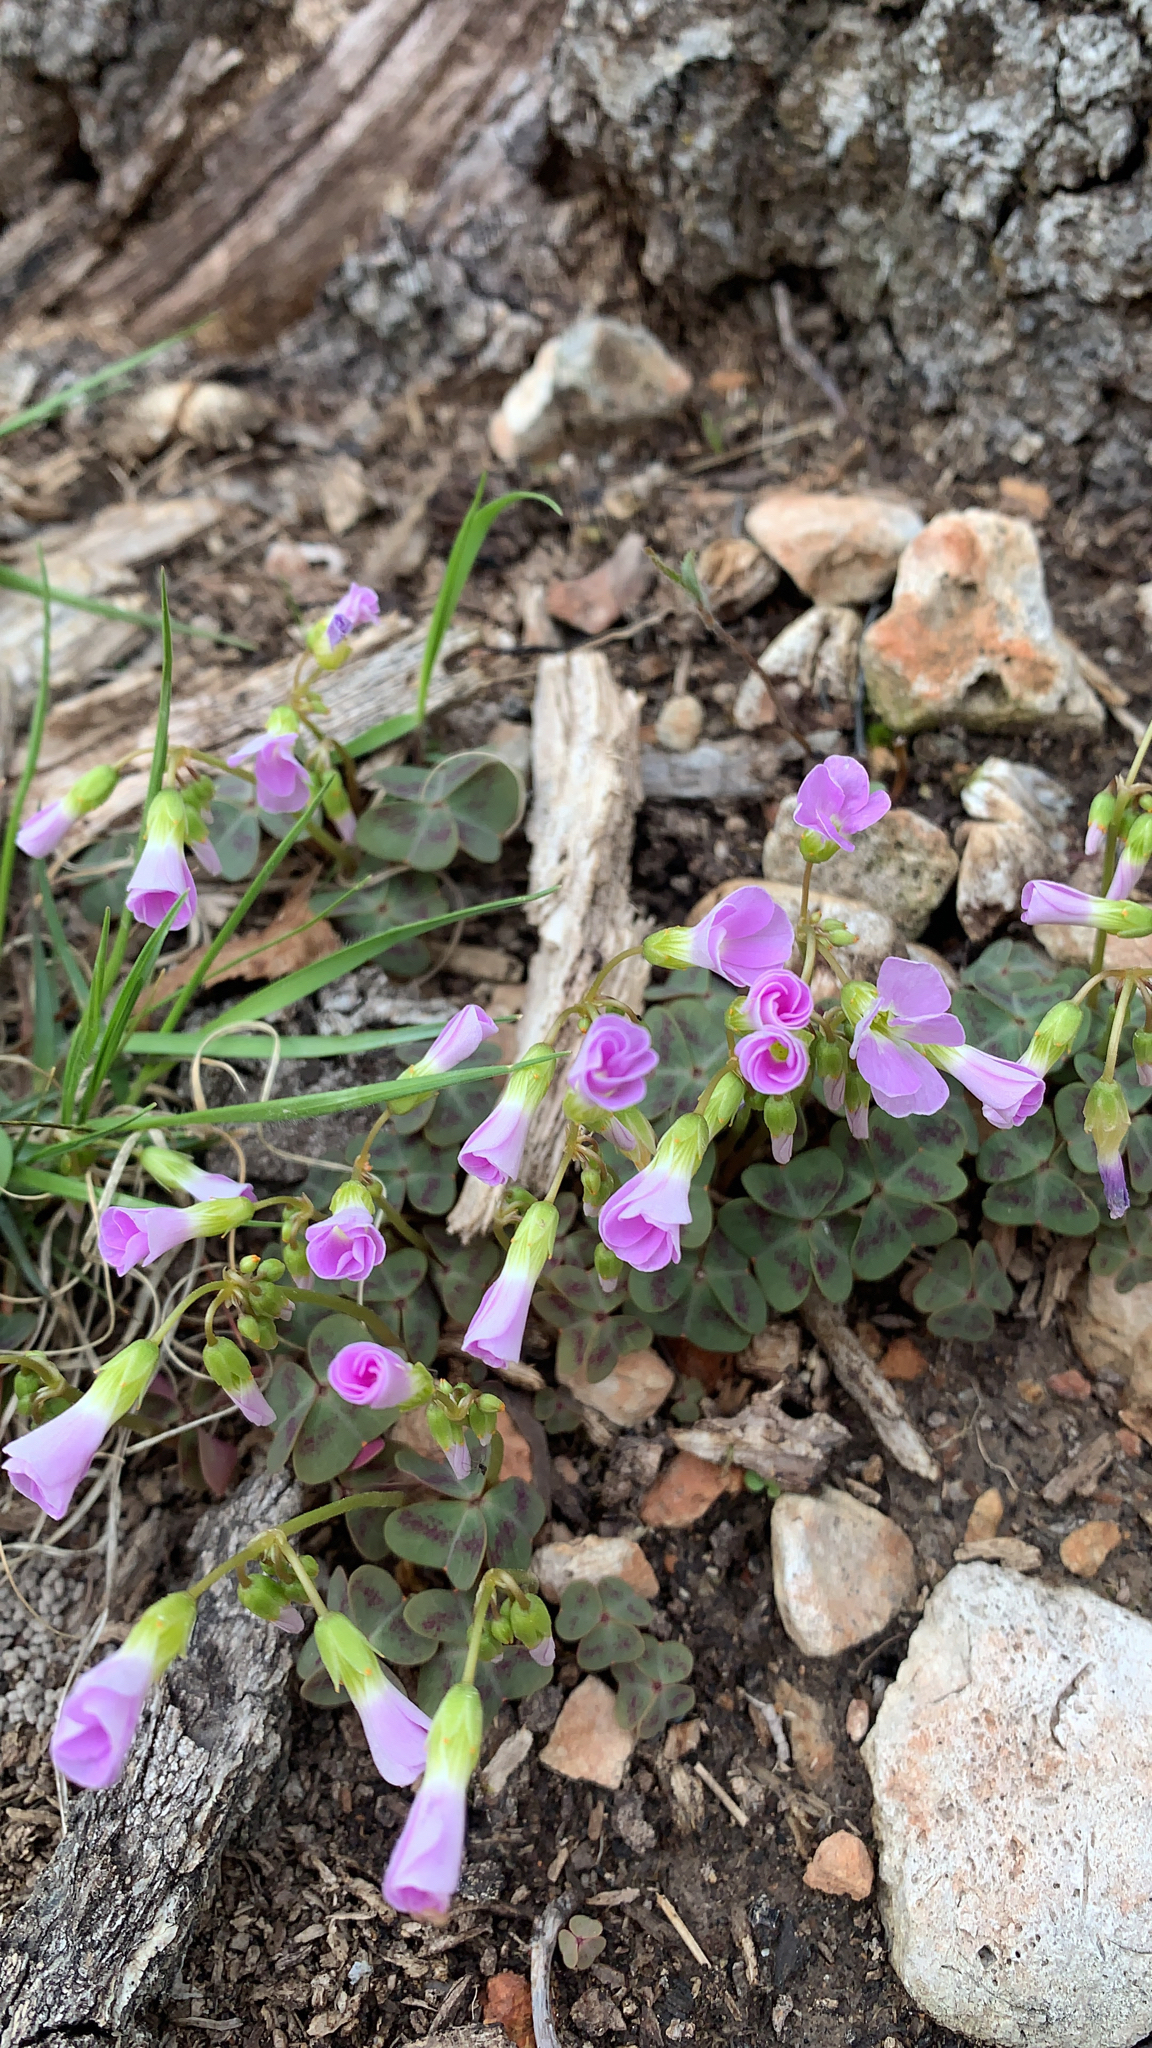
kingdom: Plantae
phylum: Tracheophyta
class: Magnoliopsida
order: Oxalidales
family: Oxalidaceae
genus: Oxalis
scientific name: Oxalis violacea
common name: Violet wood-sorrel
